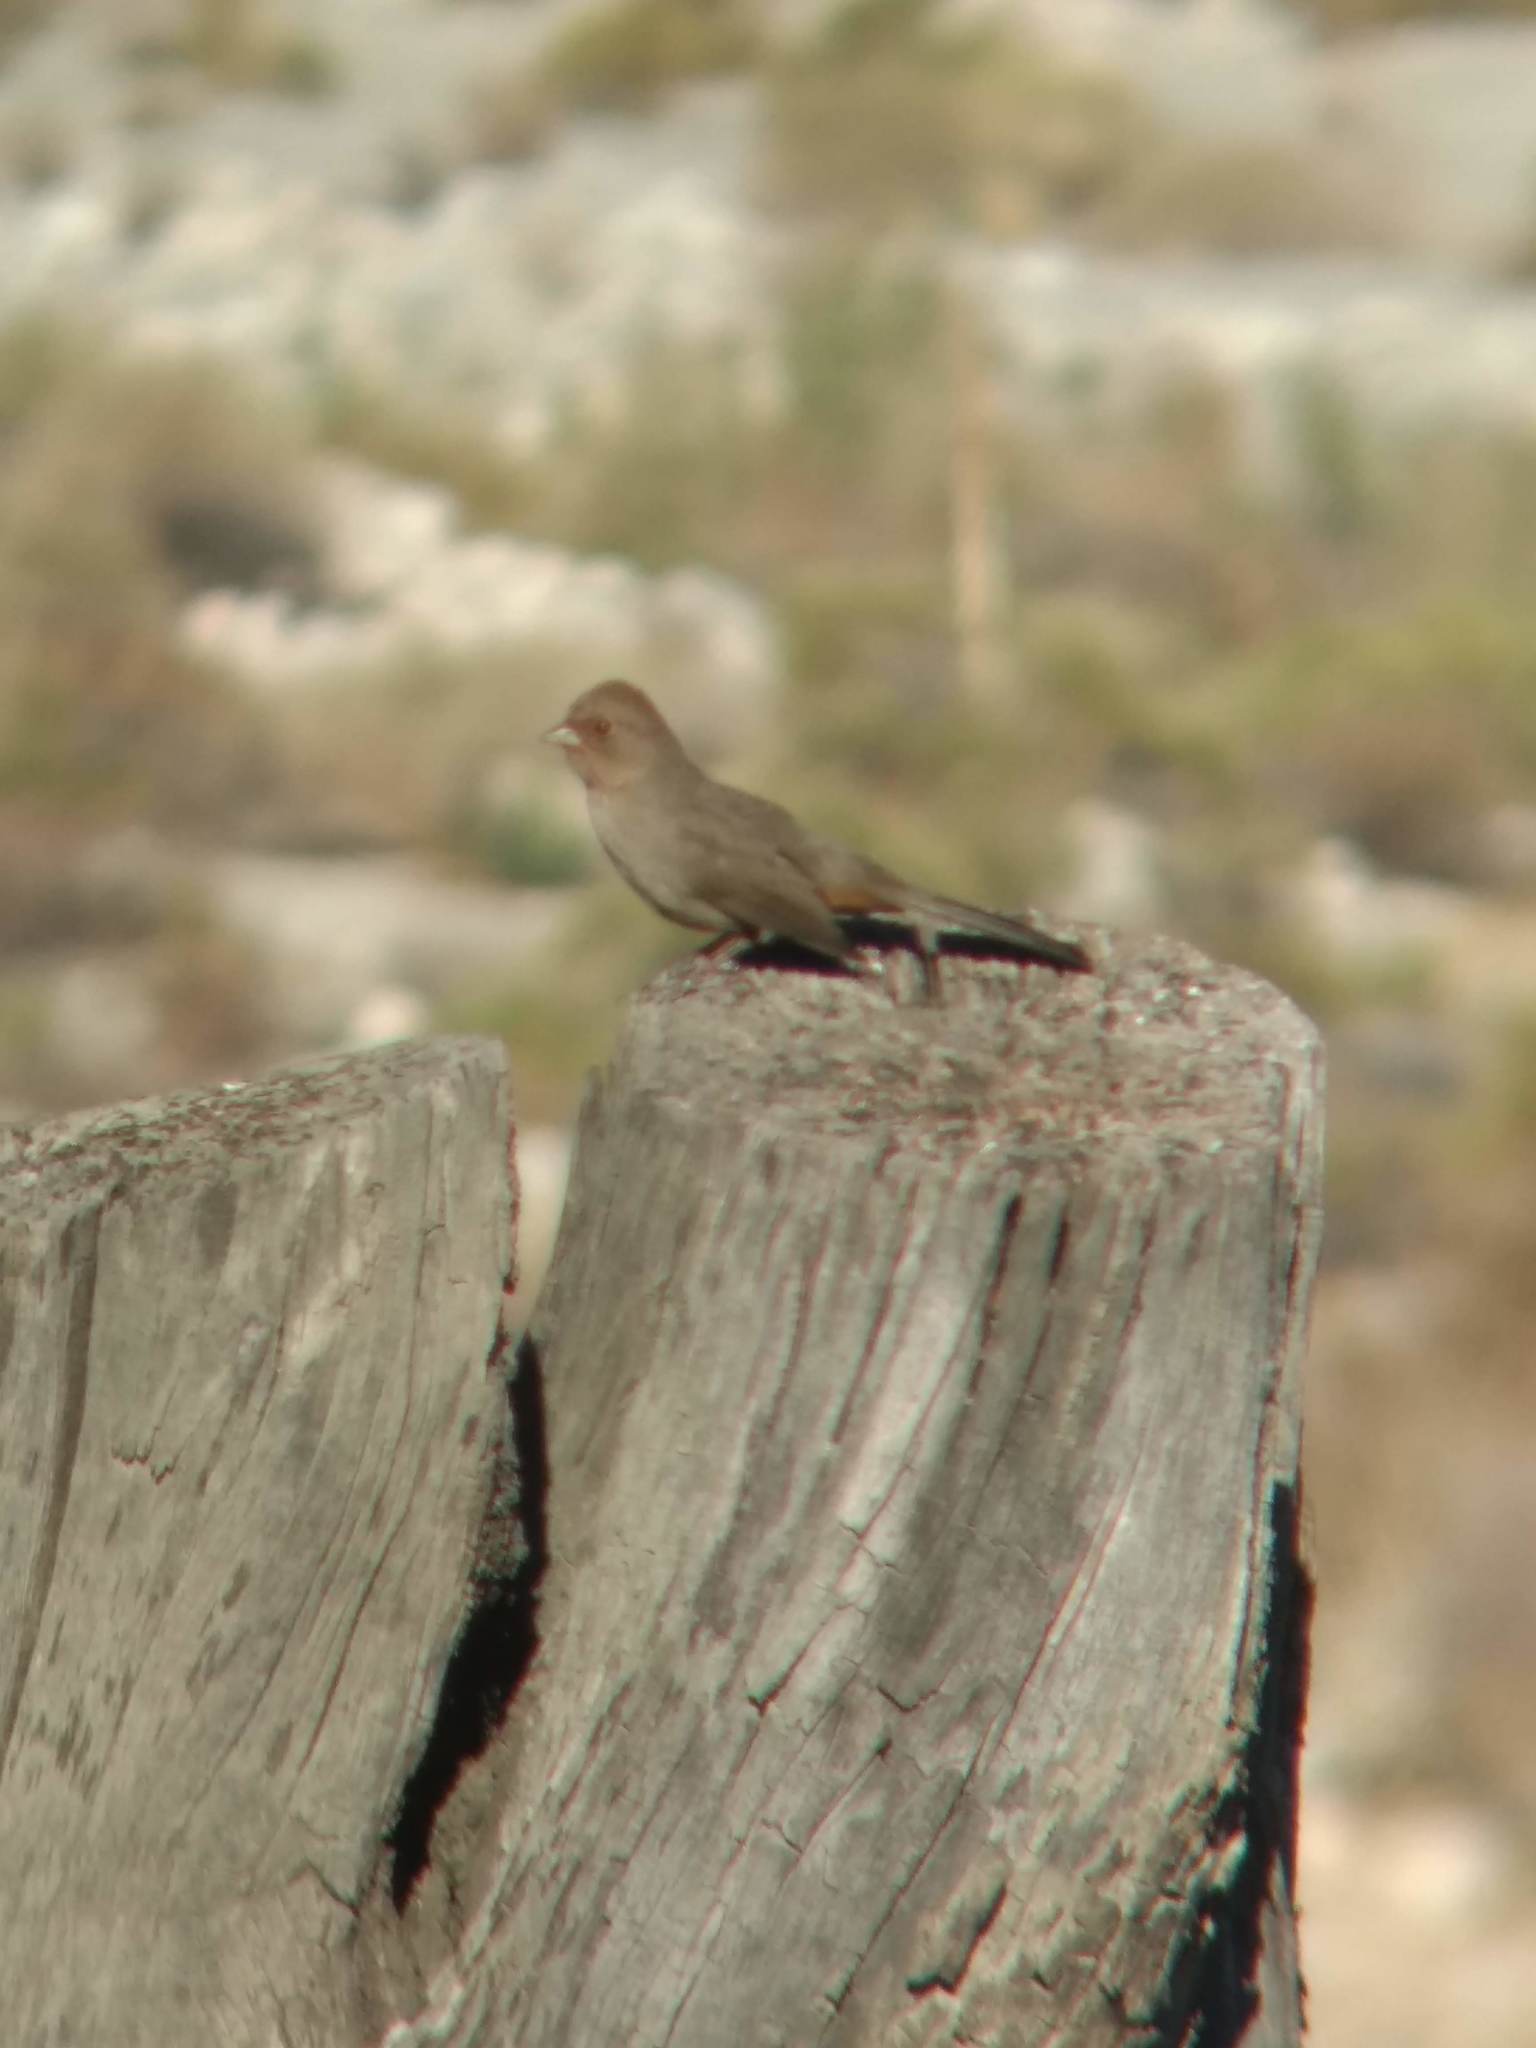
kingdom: Animalia
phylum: Chordata
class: Aves
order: Passeriformes
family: Passerellidae
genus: Melozone
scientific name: Melozone crissalis
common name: California towhee
